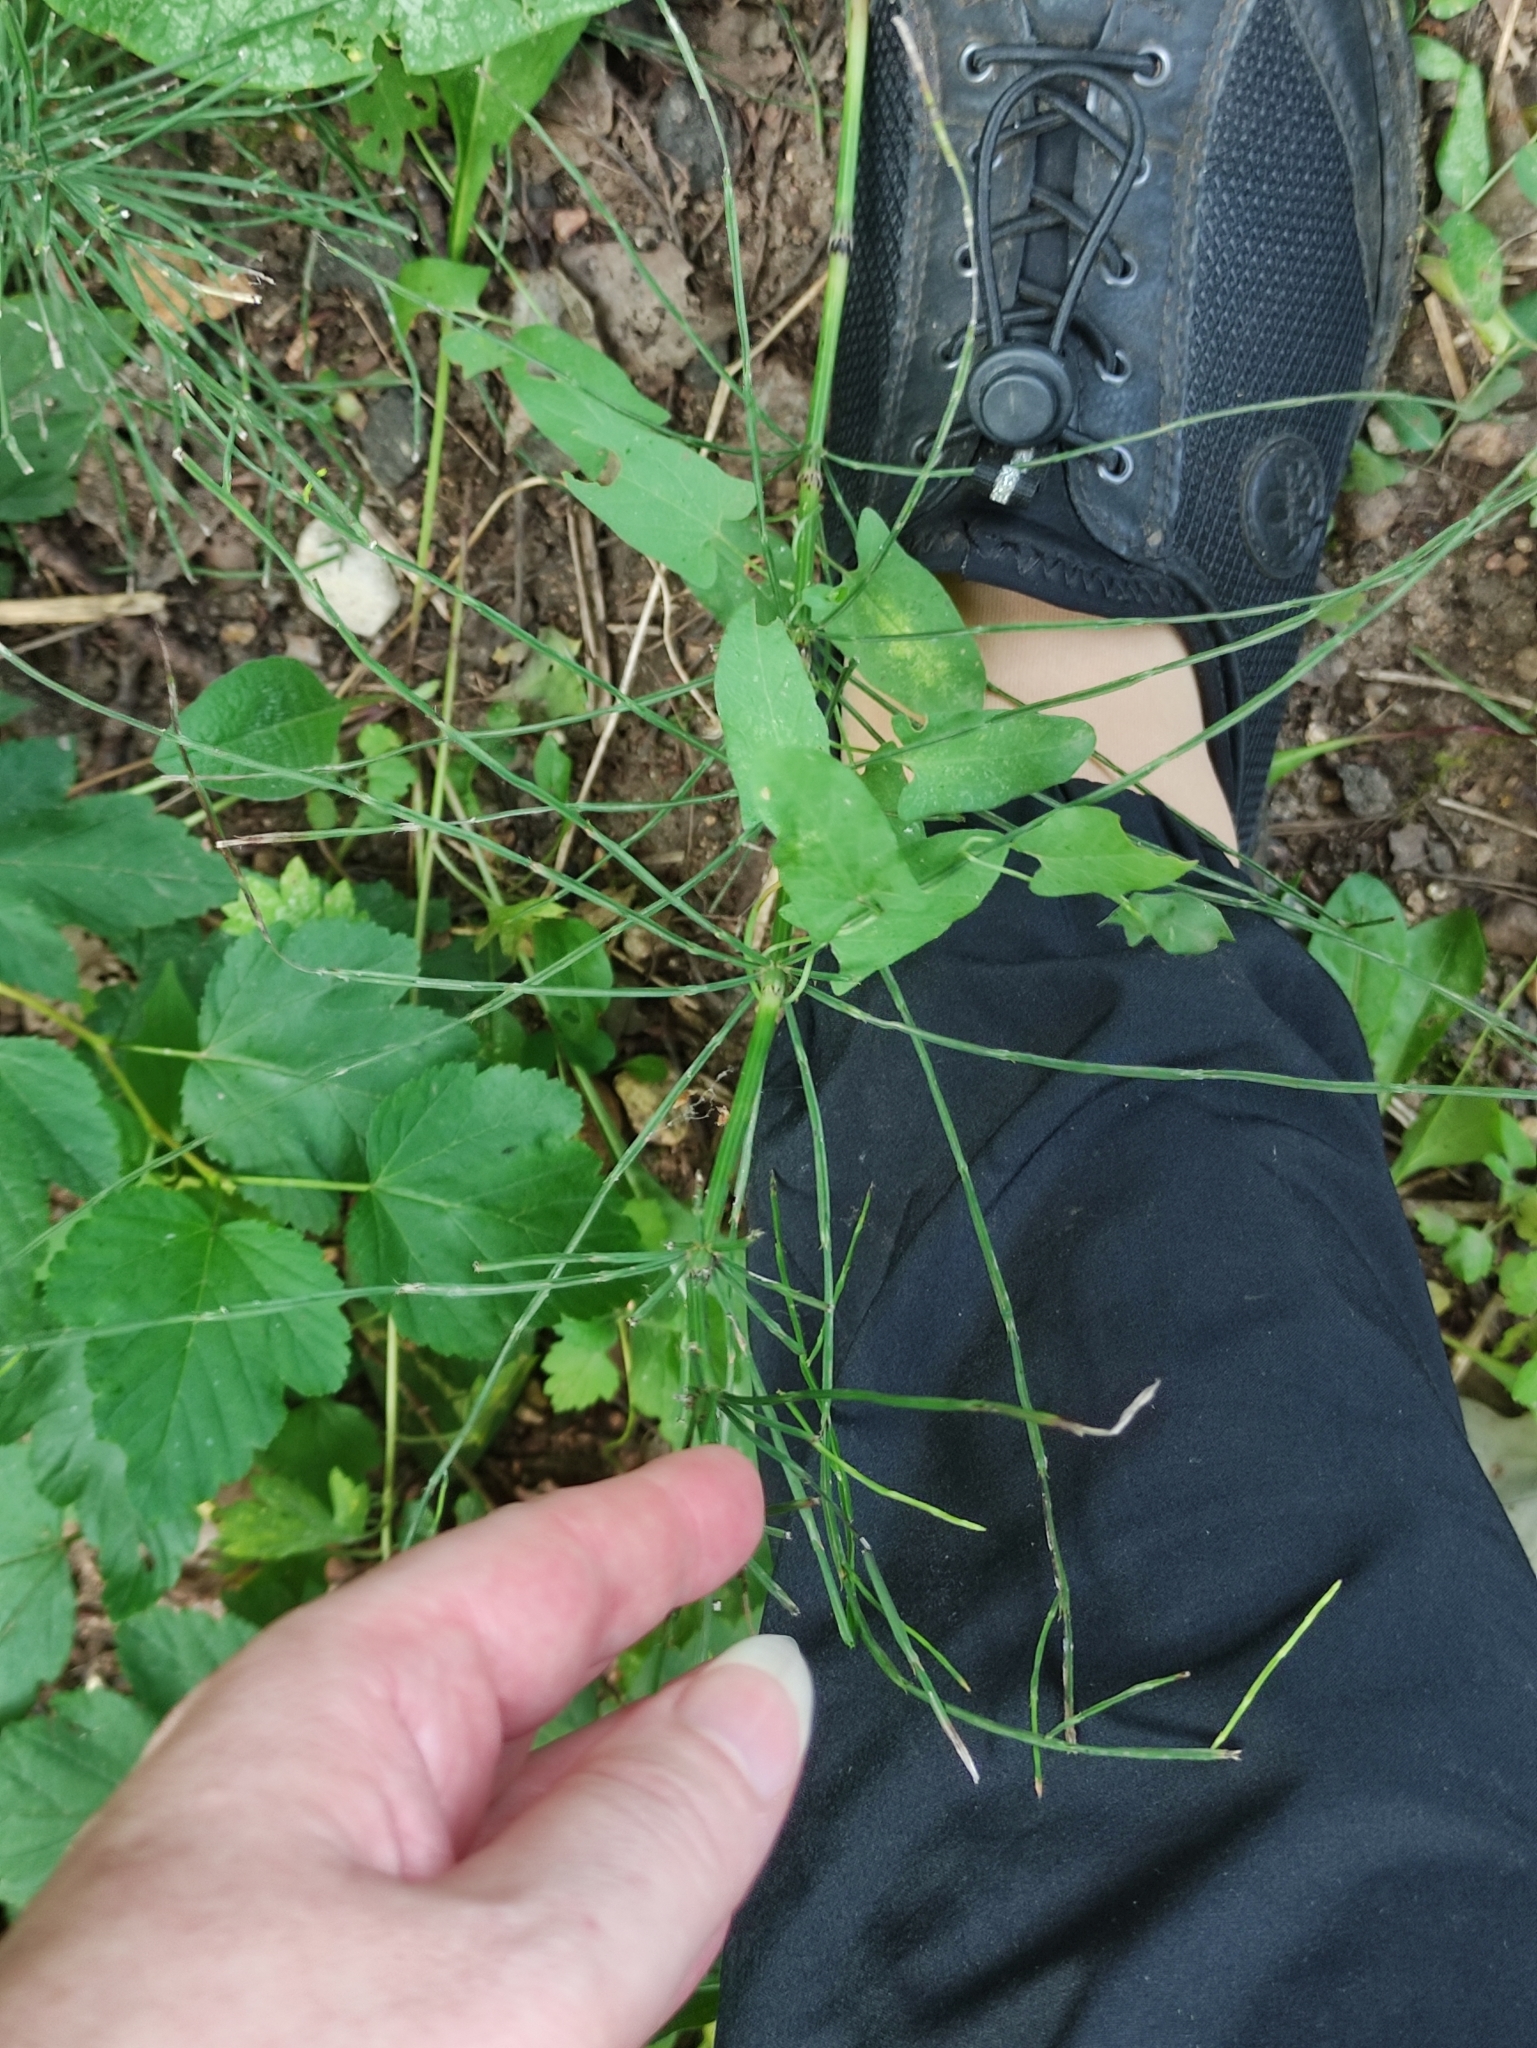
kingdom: Plantae
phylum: Tracheophyta
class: Polypodiopsida
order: Equisetales
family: Equisetaceae
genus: Equisetum
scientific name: Equisetum arvense
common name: Field horsetail
